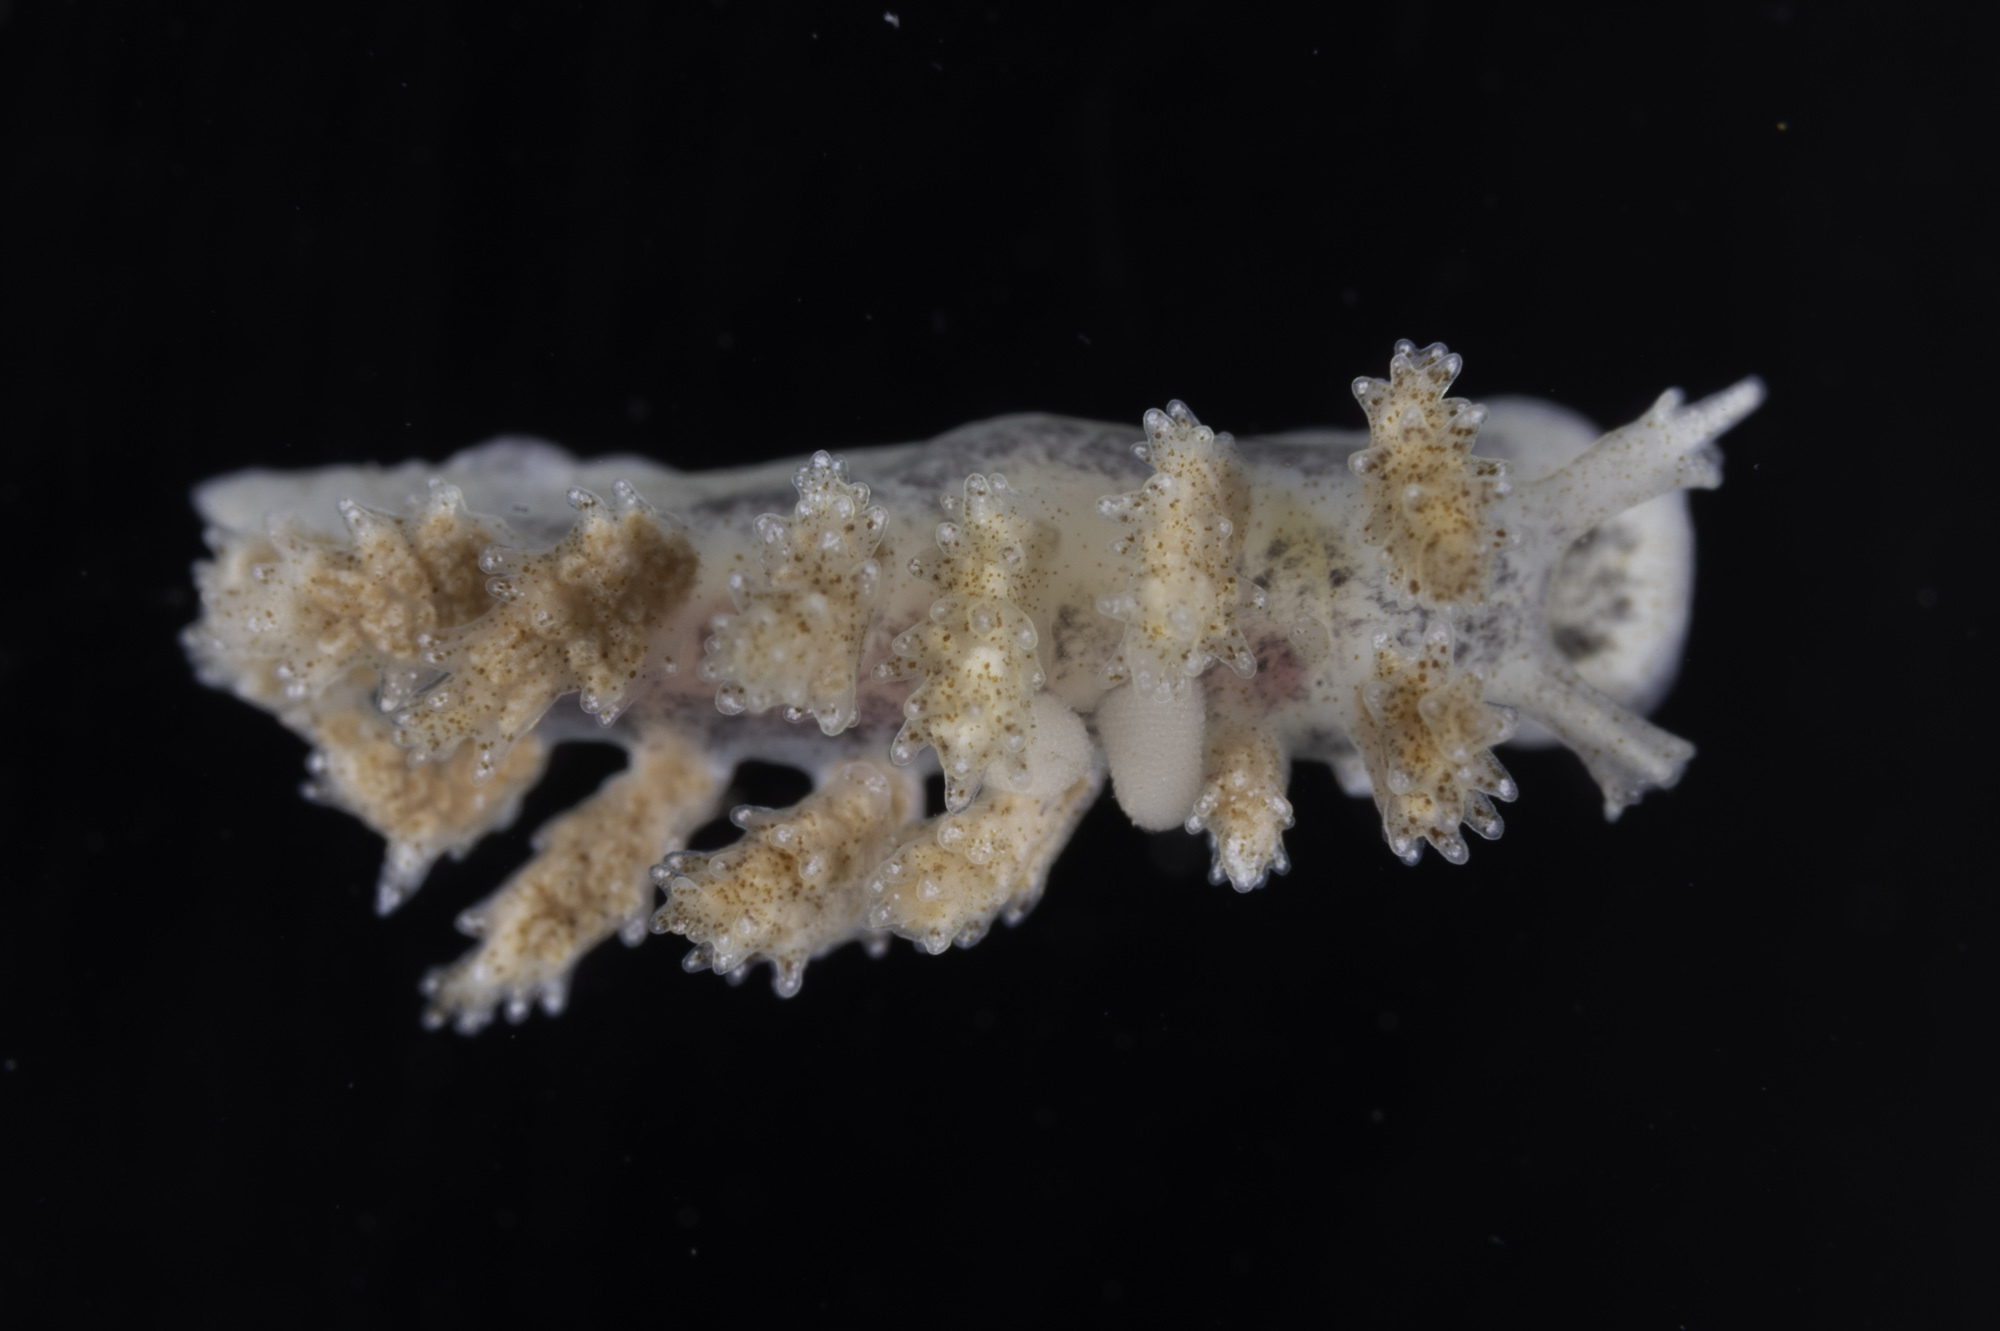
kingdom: Animalia
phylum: Mollusca
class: Gastropoda
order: Nudibranchia
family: Dotidae
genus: Doto
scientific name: Doto cuspidata
